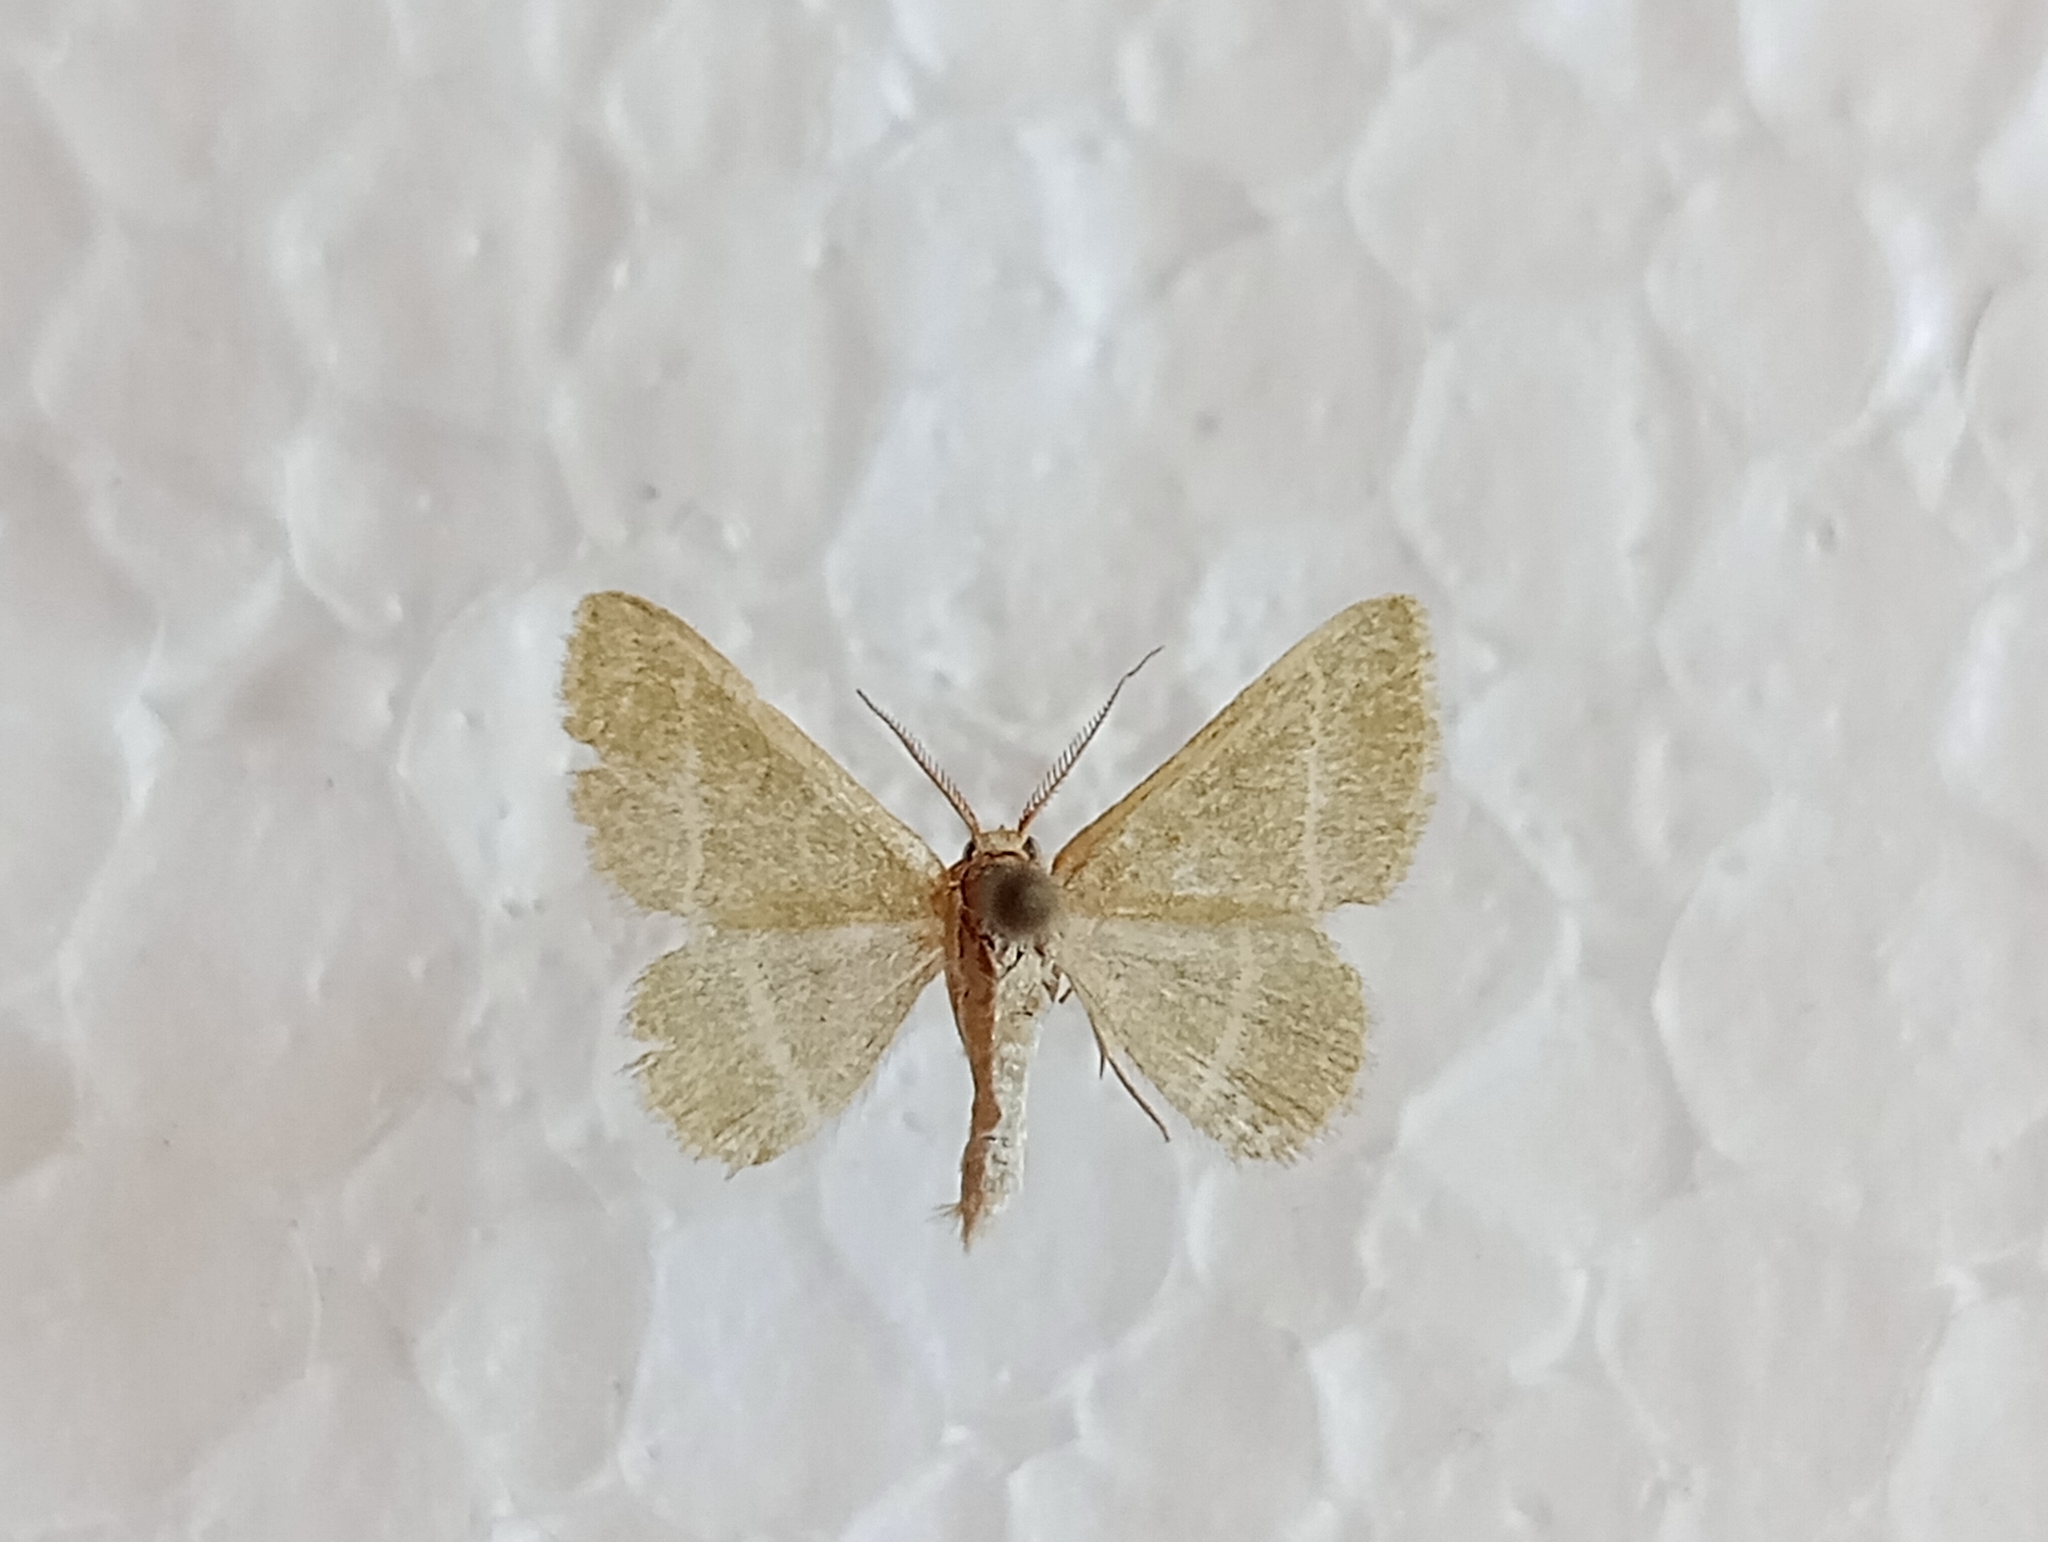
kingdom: Animalia
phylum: Arthropoda
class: Insecta
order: Lepidoptera
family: Geometridae
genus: Microloxia
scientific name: Microloxia herbaria
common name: Herb emerald
